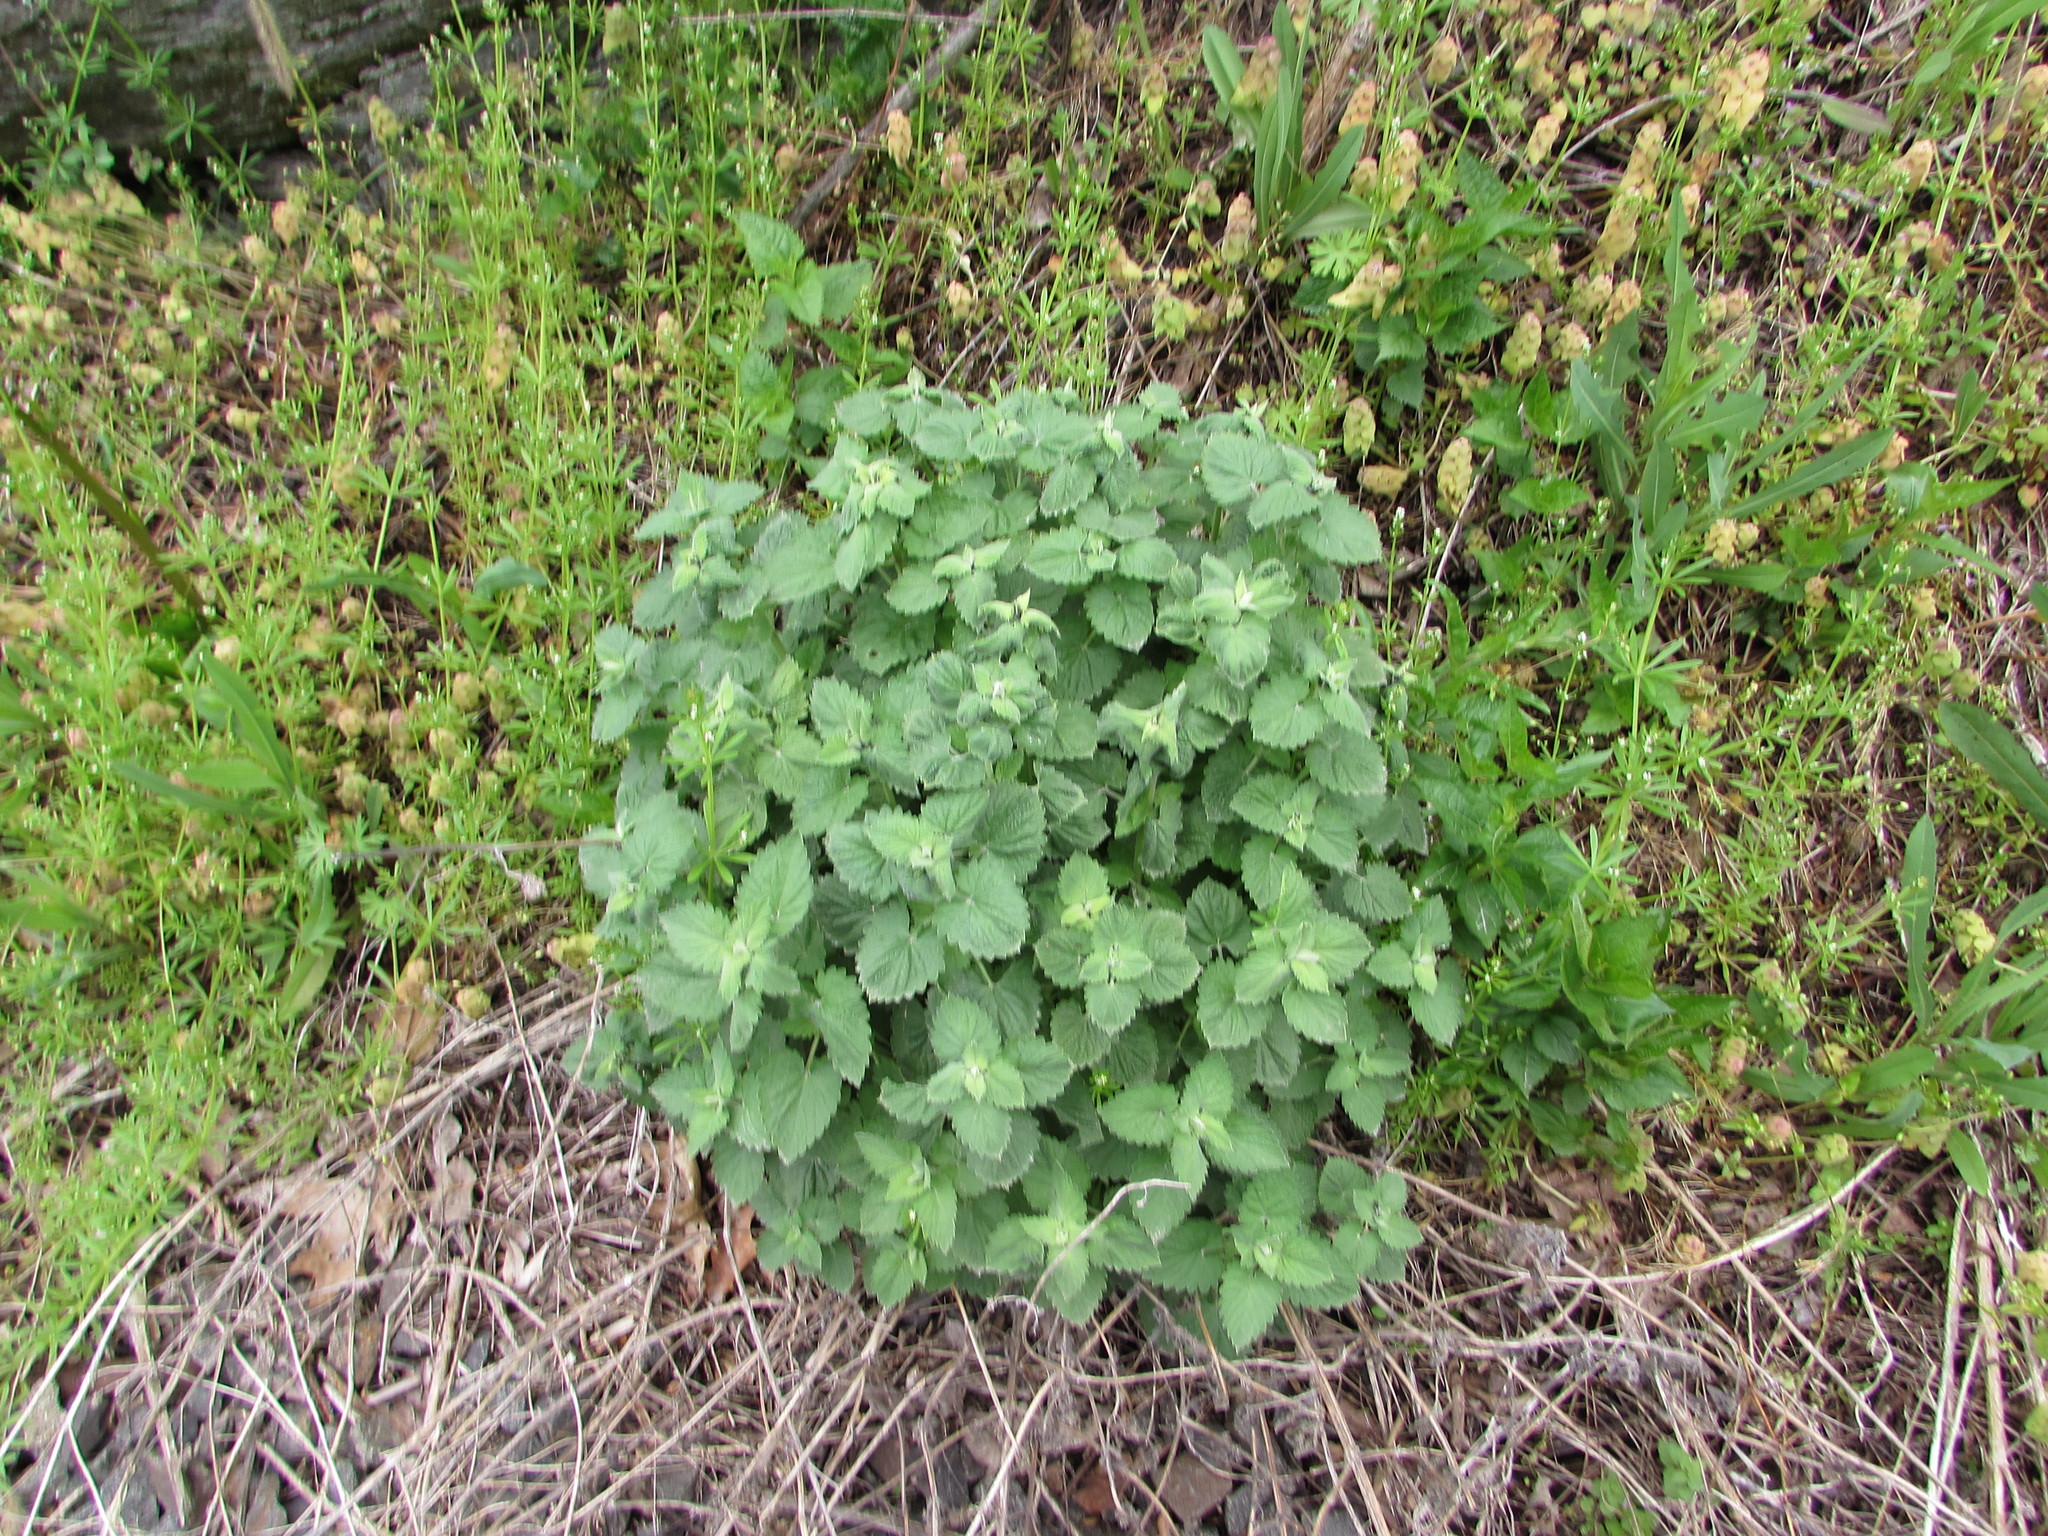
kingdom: Plantae
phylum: Tracheophyta
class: Magnoliopsida
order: Lamiales
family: Lamiaceae
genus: Nepeta
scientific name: Nepeta cataria
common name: Catnip
